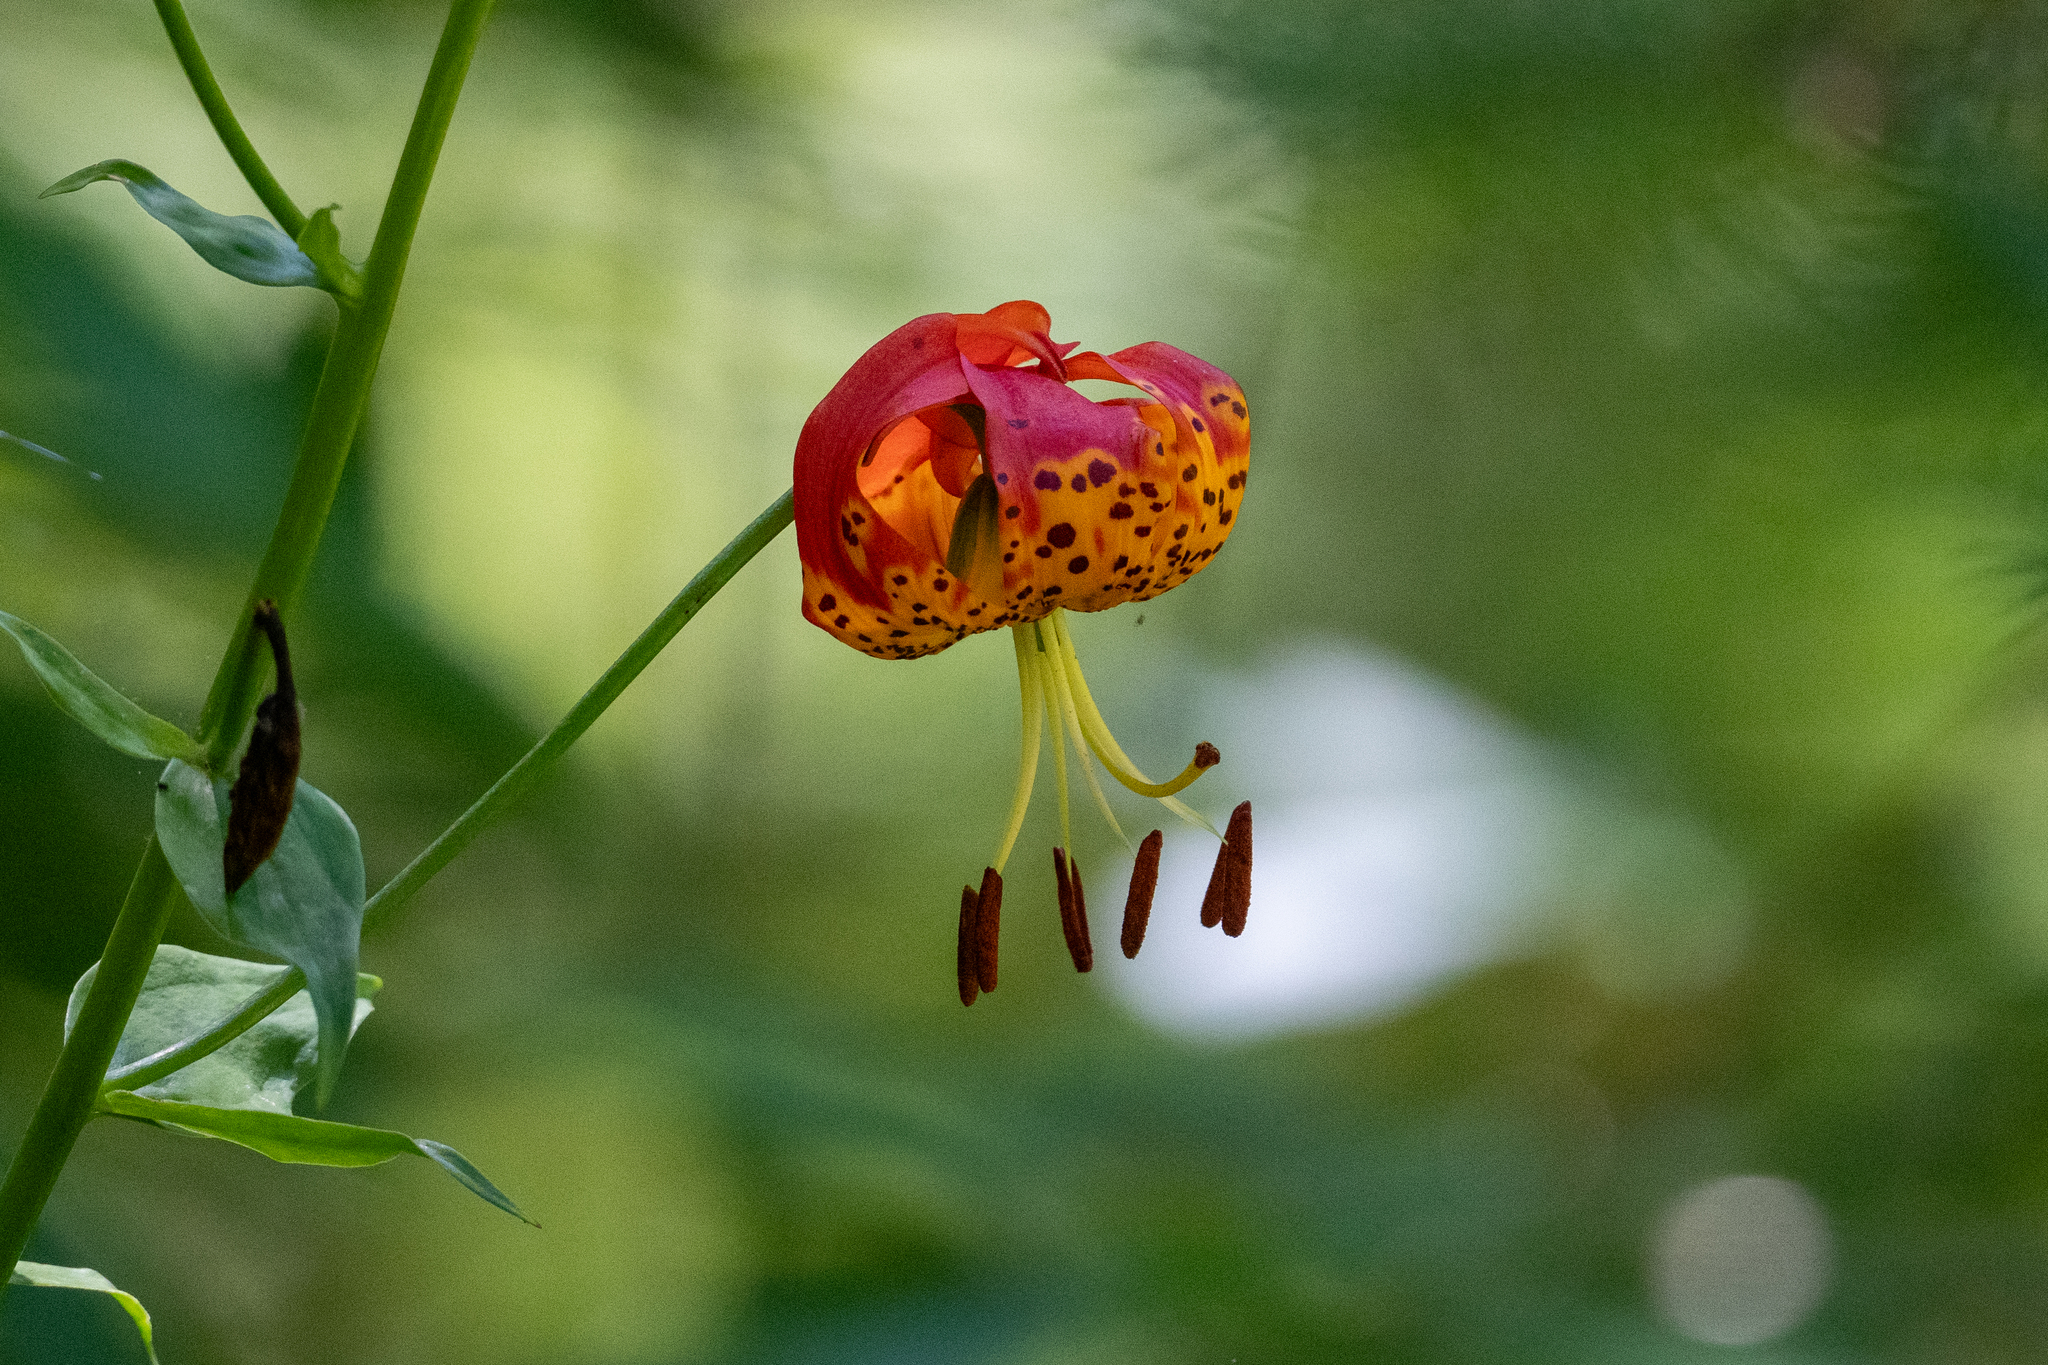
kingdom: Plantae
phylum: Tracheophyta
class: Liliopsida
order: Liliales
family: Liliaceae
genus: Lilium
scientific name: Lilium pardalinum
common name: Panther lily
